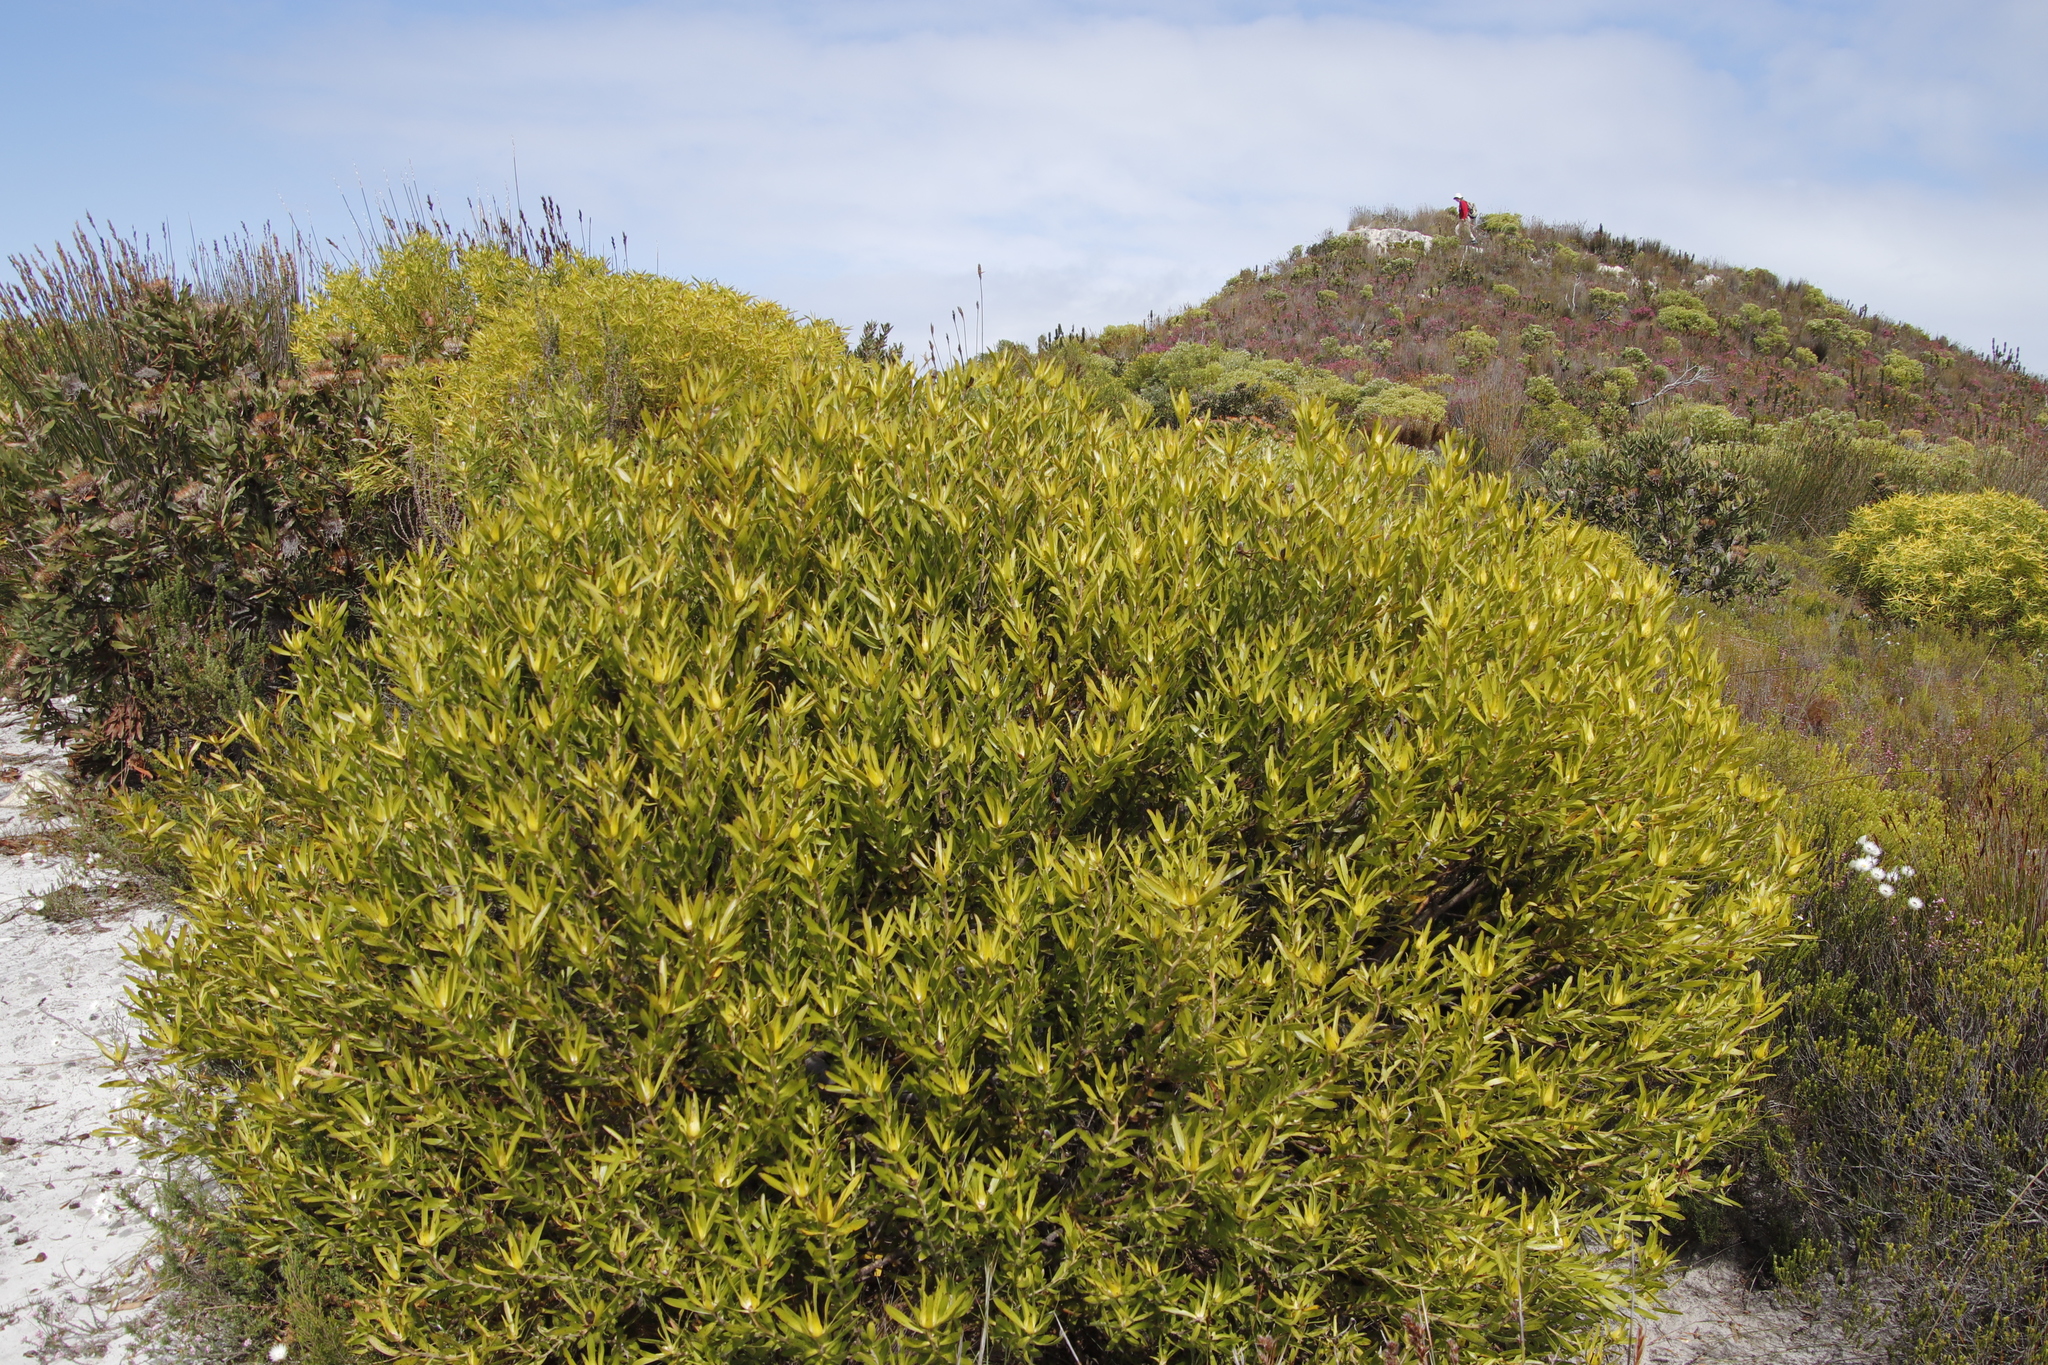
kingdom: Plantae
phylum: Tracheophyta
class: Magnoliopsida
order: Proteales
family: Proteaceae
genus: Leucadendron
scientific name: Leucadendron coniferum
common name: Dune conebush
